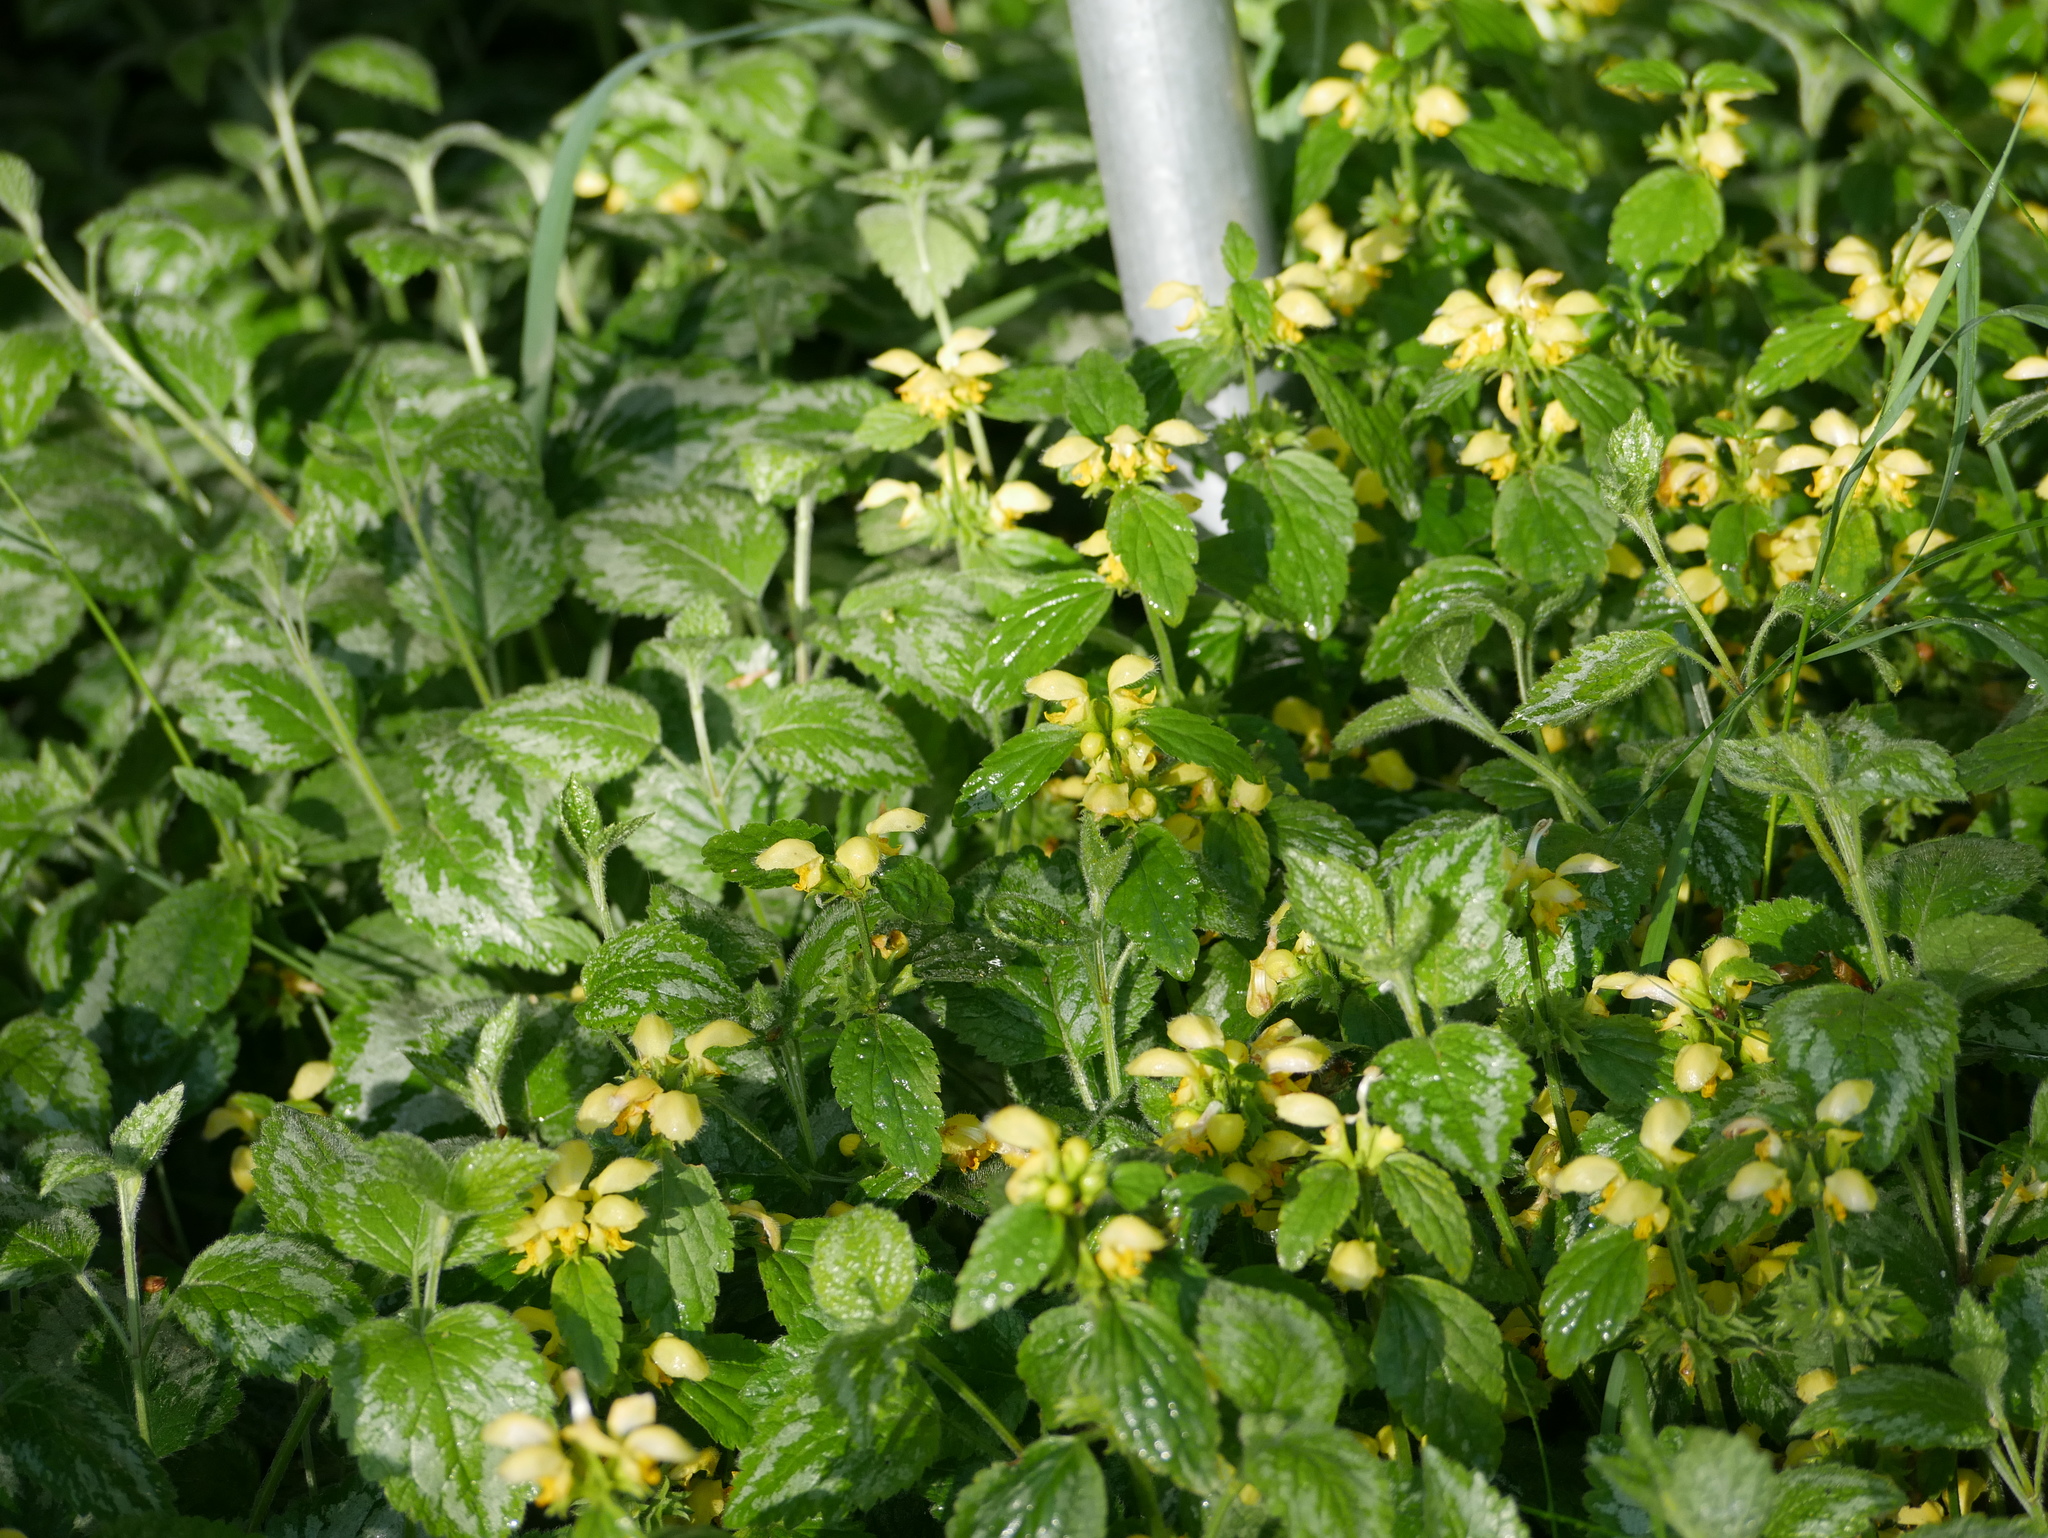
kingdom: Plantae
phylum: Tracheophyta
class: Magnoliopsida
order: Lamiales
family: Lamiaceae
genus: Lamium
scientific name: Lamium galeobdolon
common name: Yellow archangel
